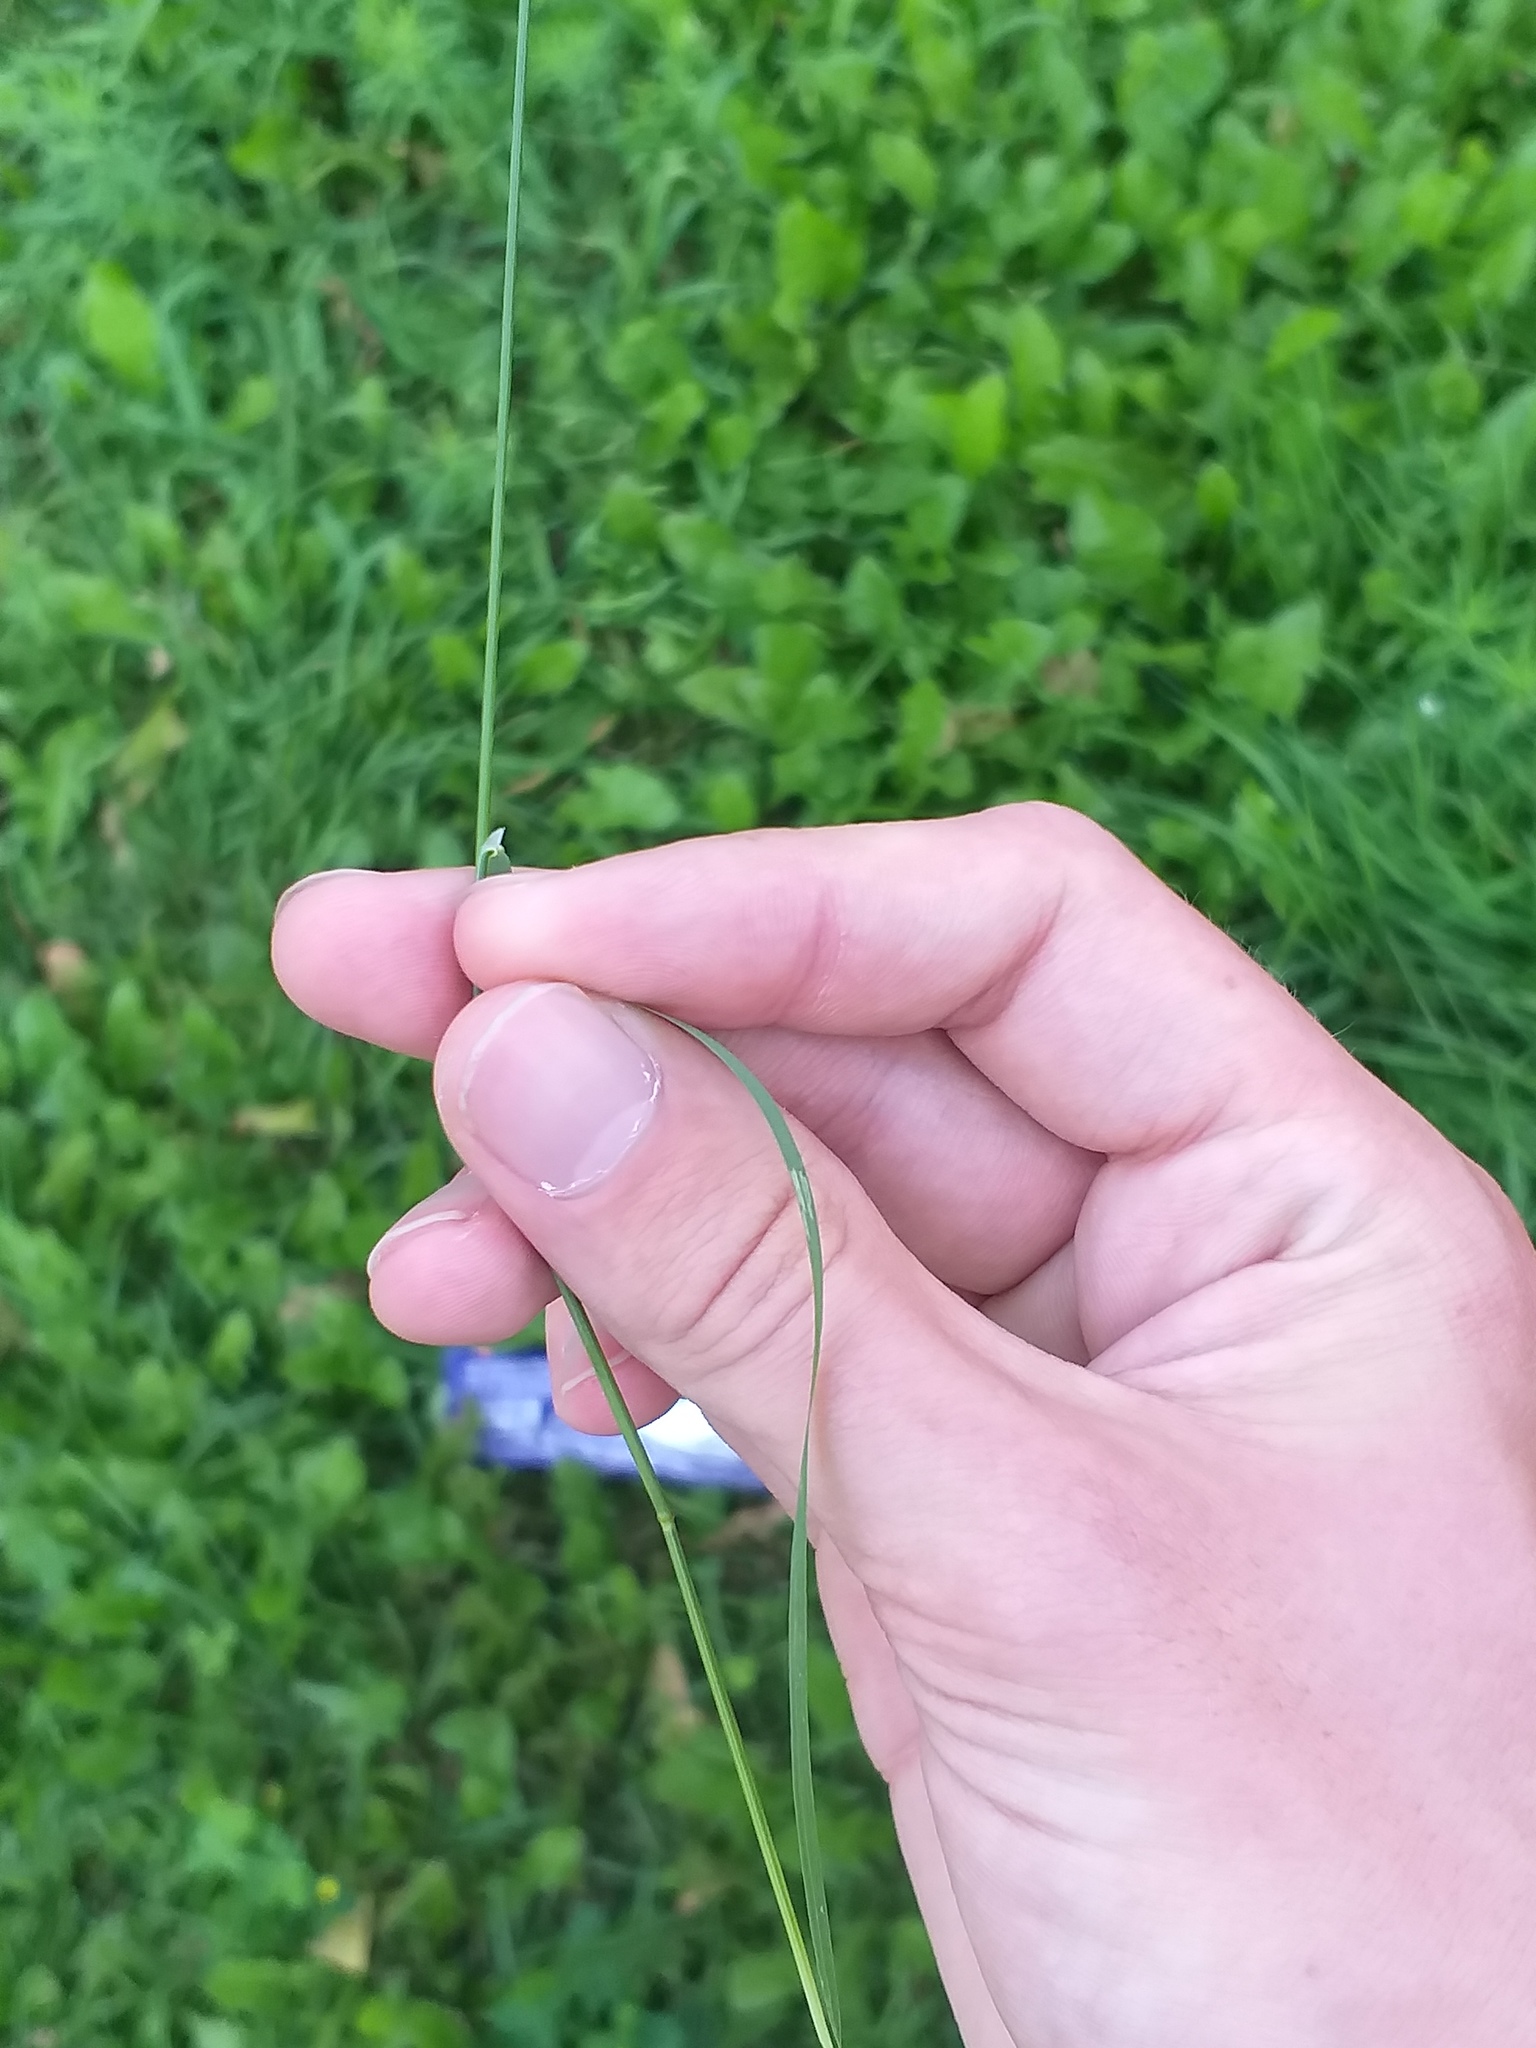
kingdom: Plantae
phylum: Tracheophyta
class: Liliopsida
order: Poales
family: Poaceae
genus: Poa
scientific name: Poa palustris
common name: Swamp meadow-grass
